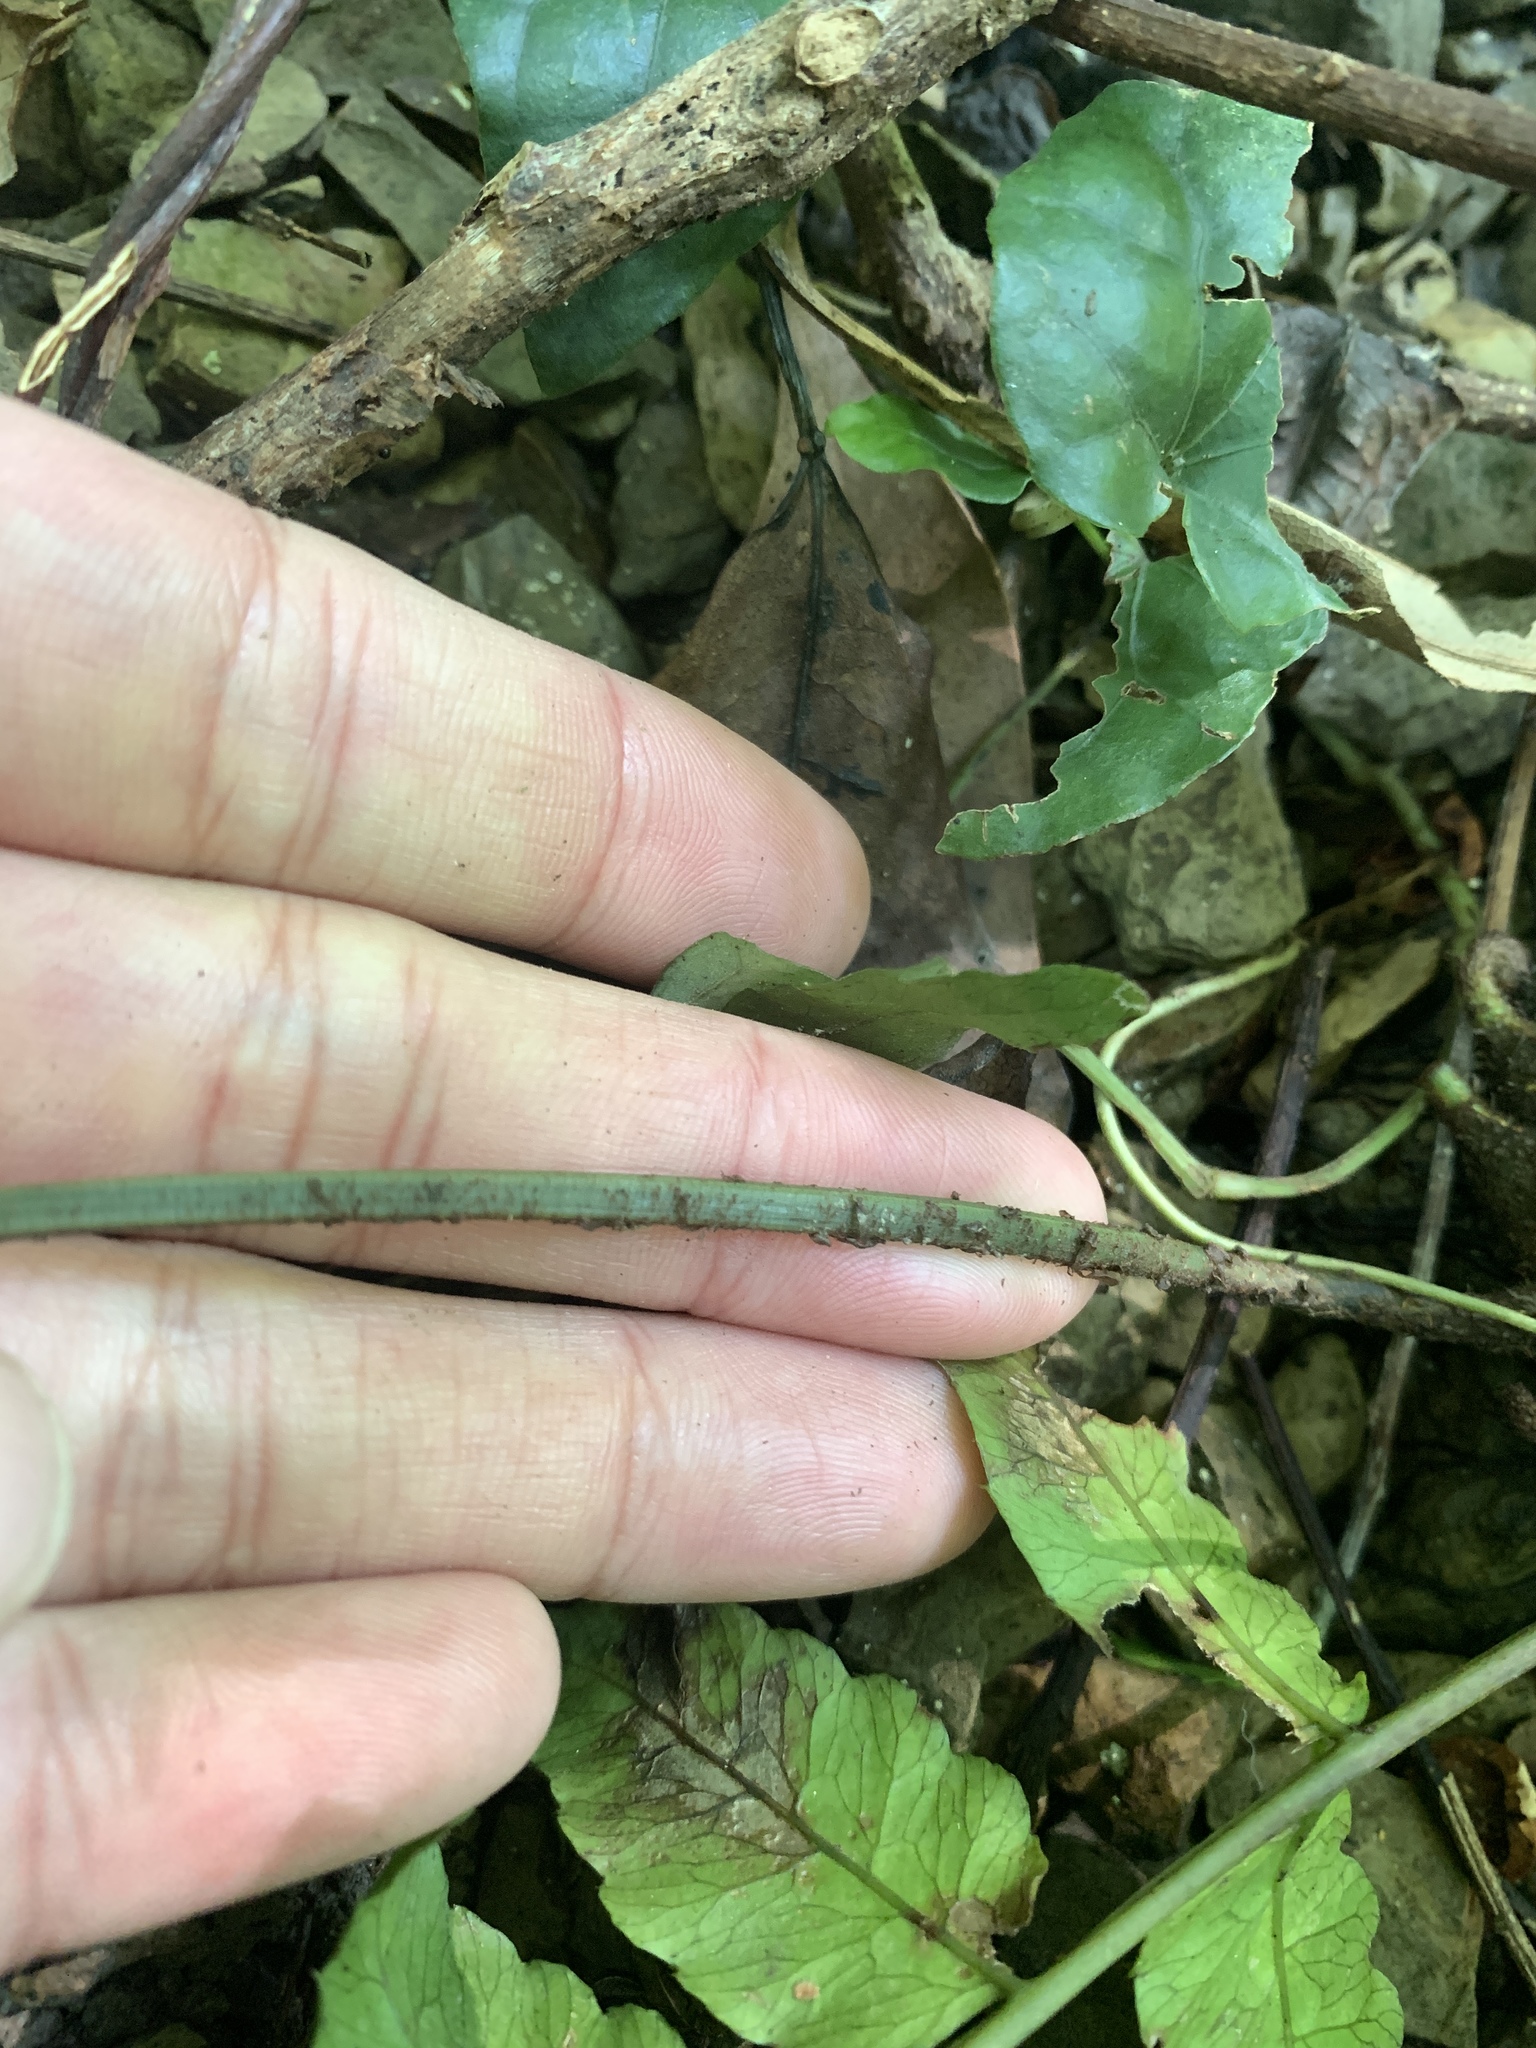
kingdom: Plantae
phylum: Tracheophyta
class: Polypodiopsida
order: Polypodiales
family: Dryopteridaceae
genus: Bolbitis
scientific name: Bolbitis subcordata
